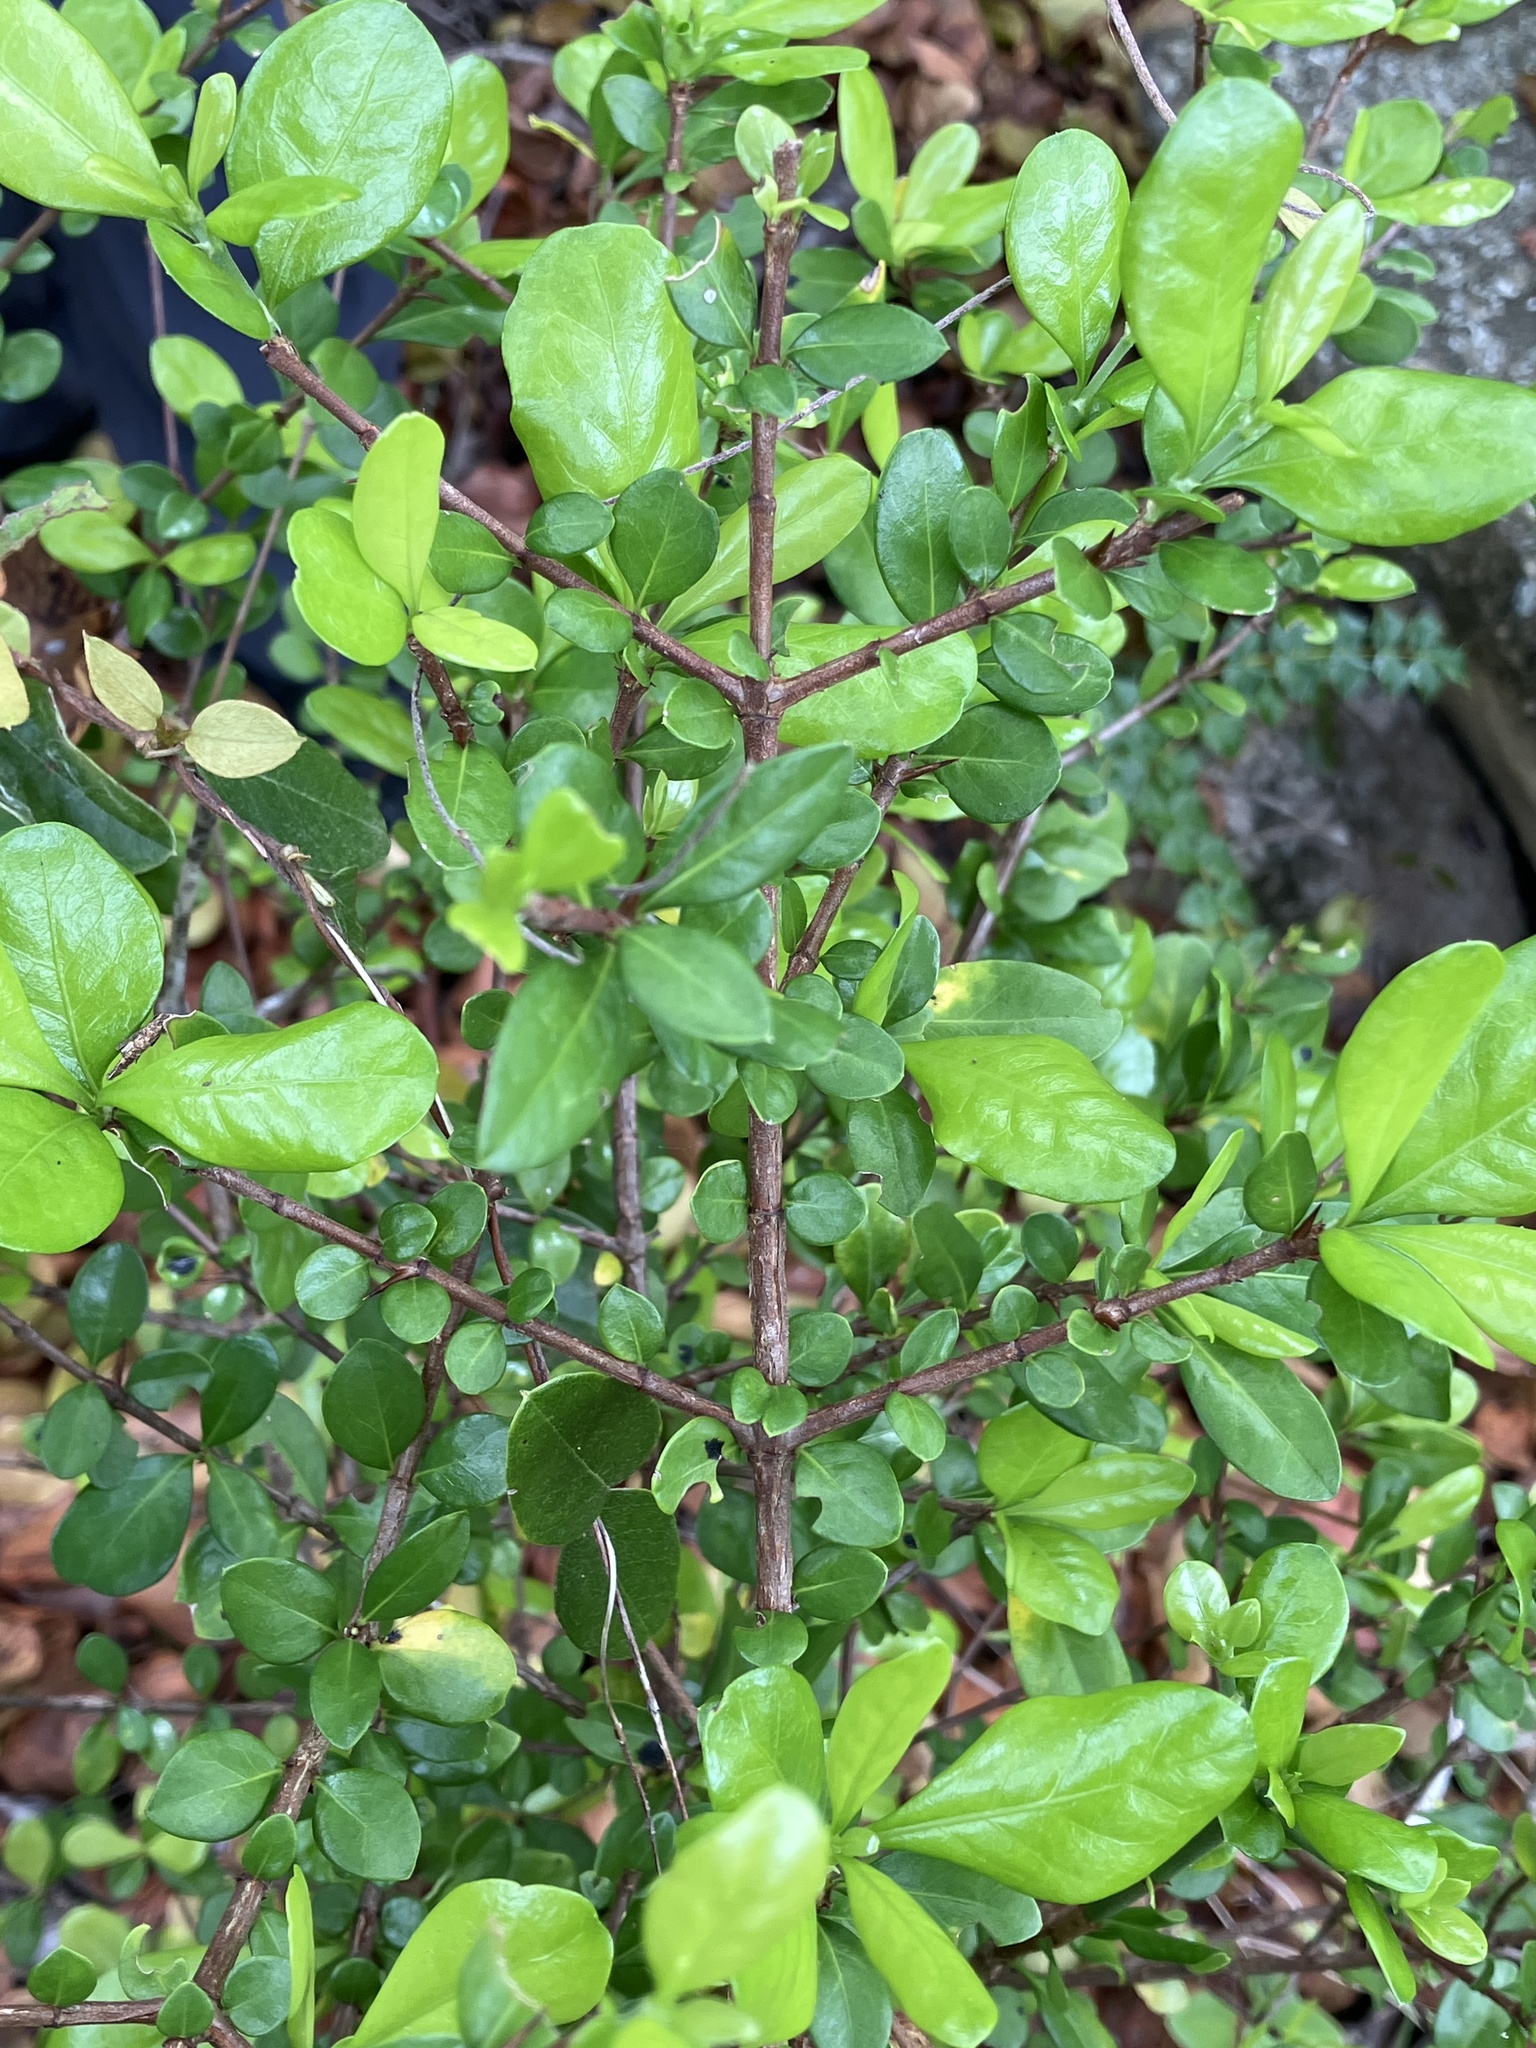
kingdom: Plantae
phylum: Tracheophyta
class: Magnoliopsida
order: Gentianales
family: Rubiaceae
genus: Randia
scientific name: Randia aculeata
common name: Inkberry
